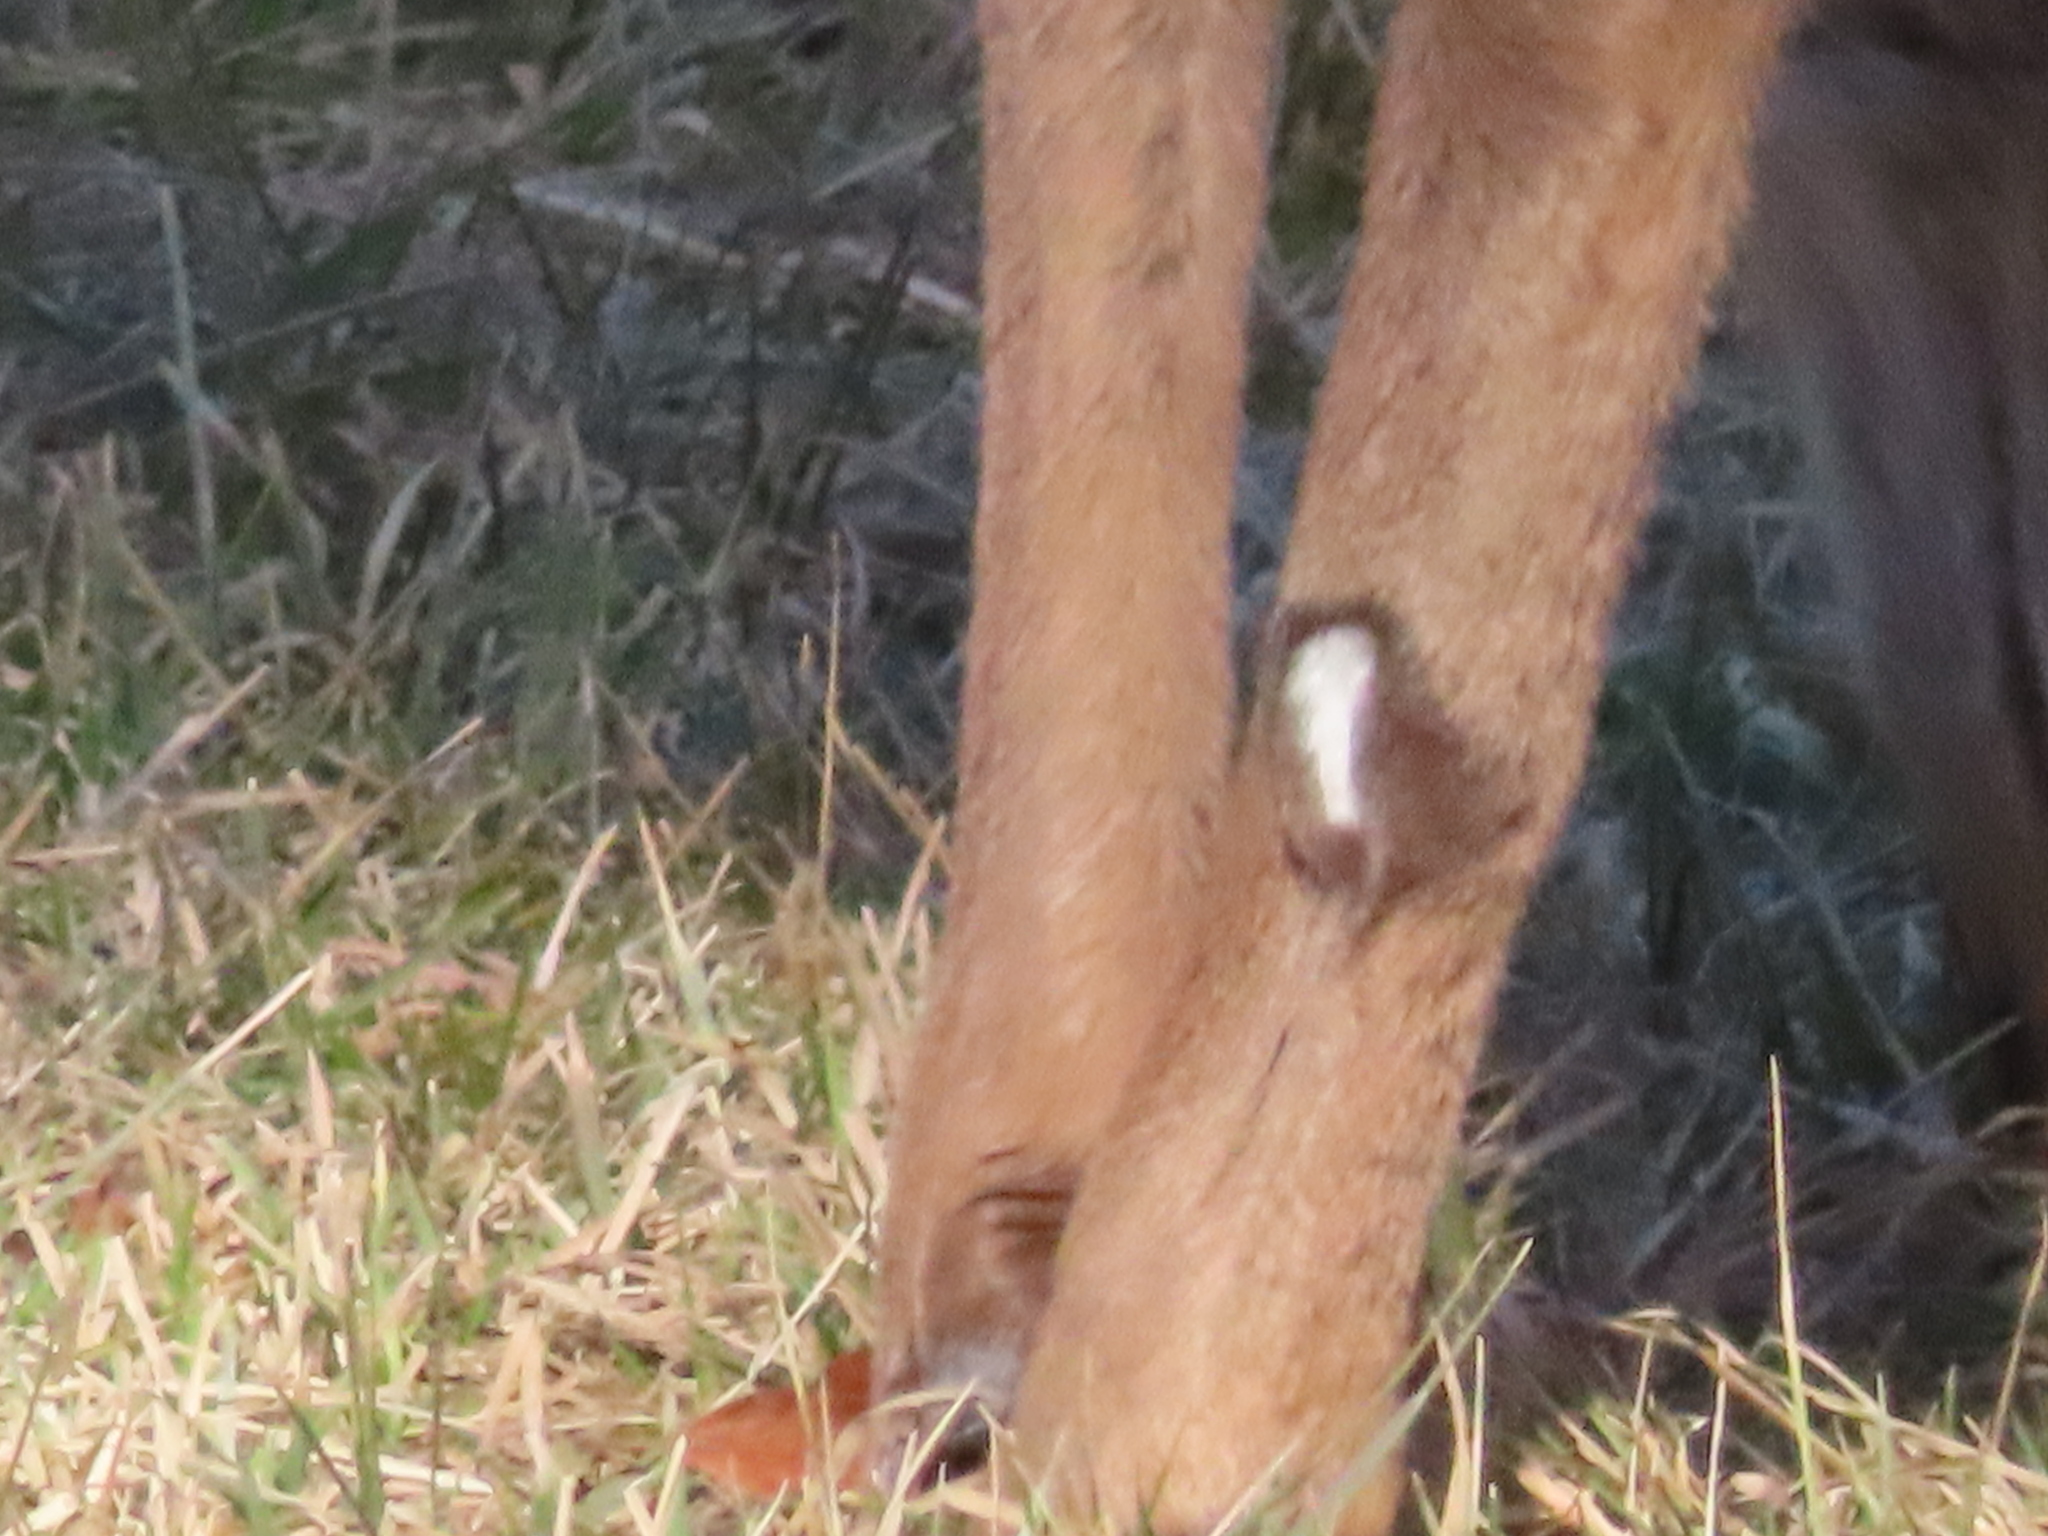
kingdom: Animalia
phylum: Chordata
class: Mammalia
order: Artiodactyla
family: Cervidae
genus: Odocoileus
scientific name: Odocoileus virginianus
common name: White-tailed deer
